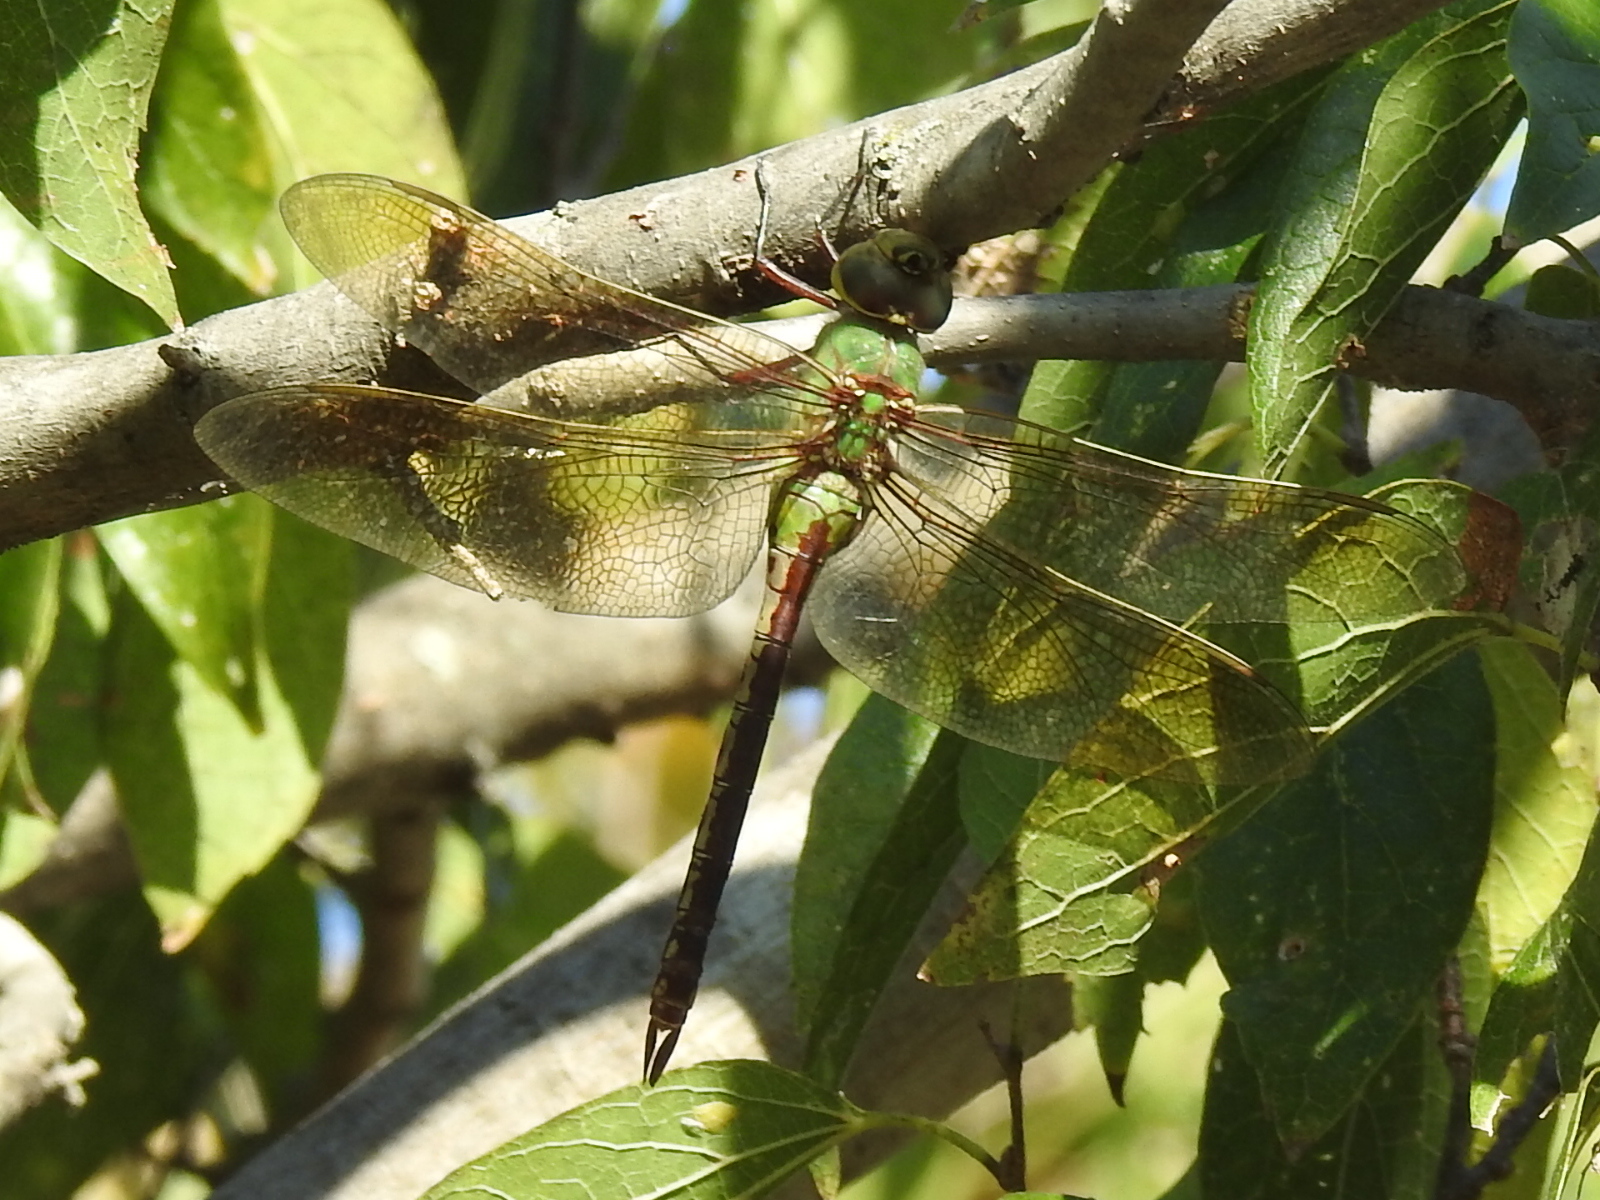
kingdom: Animalia
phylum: Arthropoda
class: Insecta
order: Odonata
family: Aeshnidae
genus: Anax
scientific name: Anax junius
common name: Common green darner
